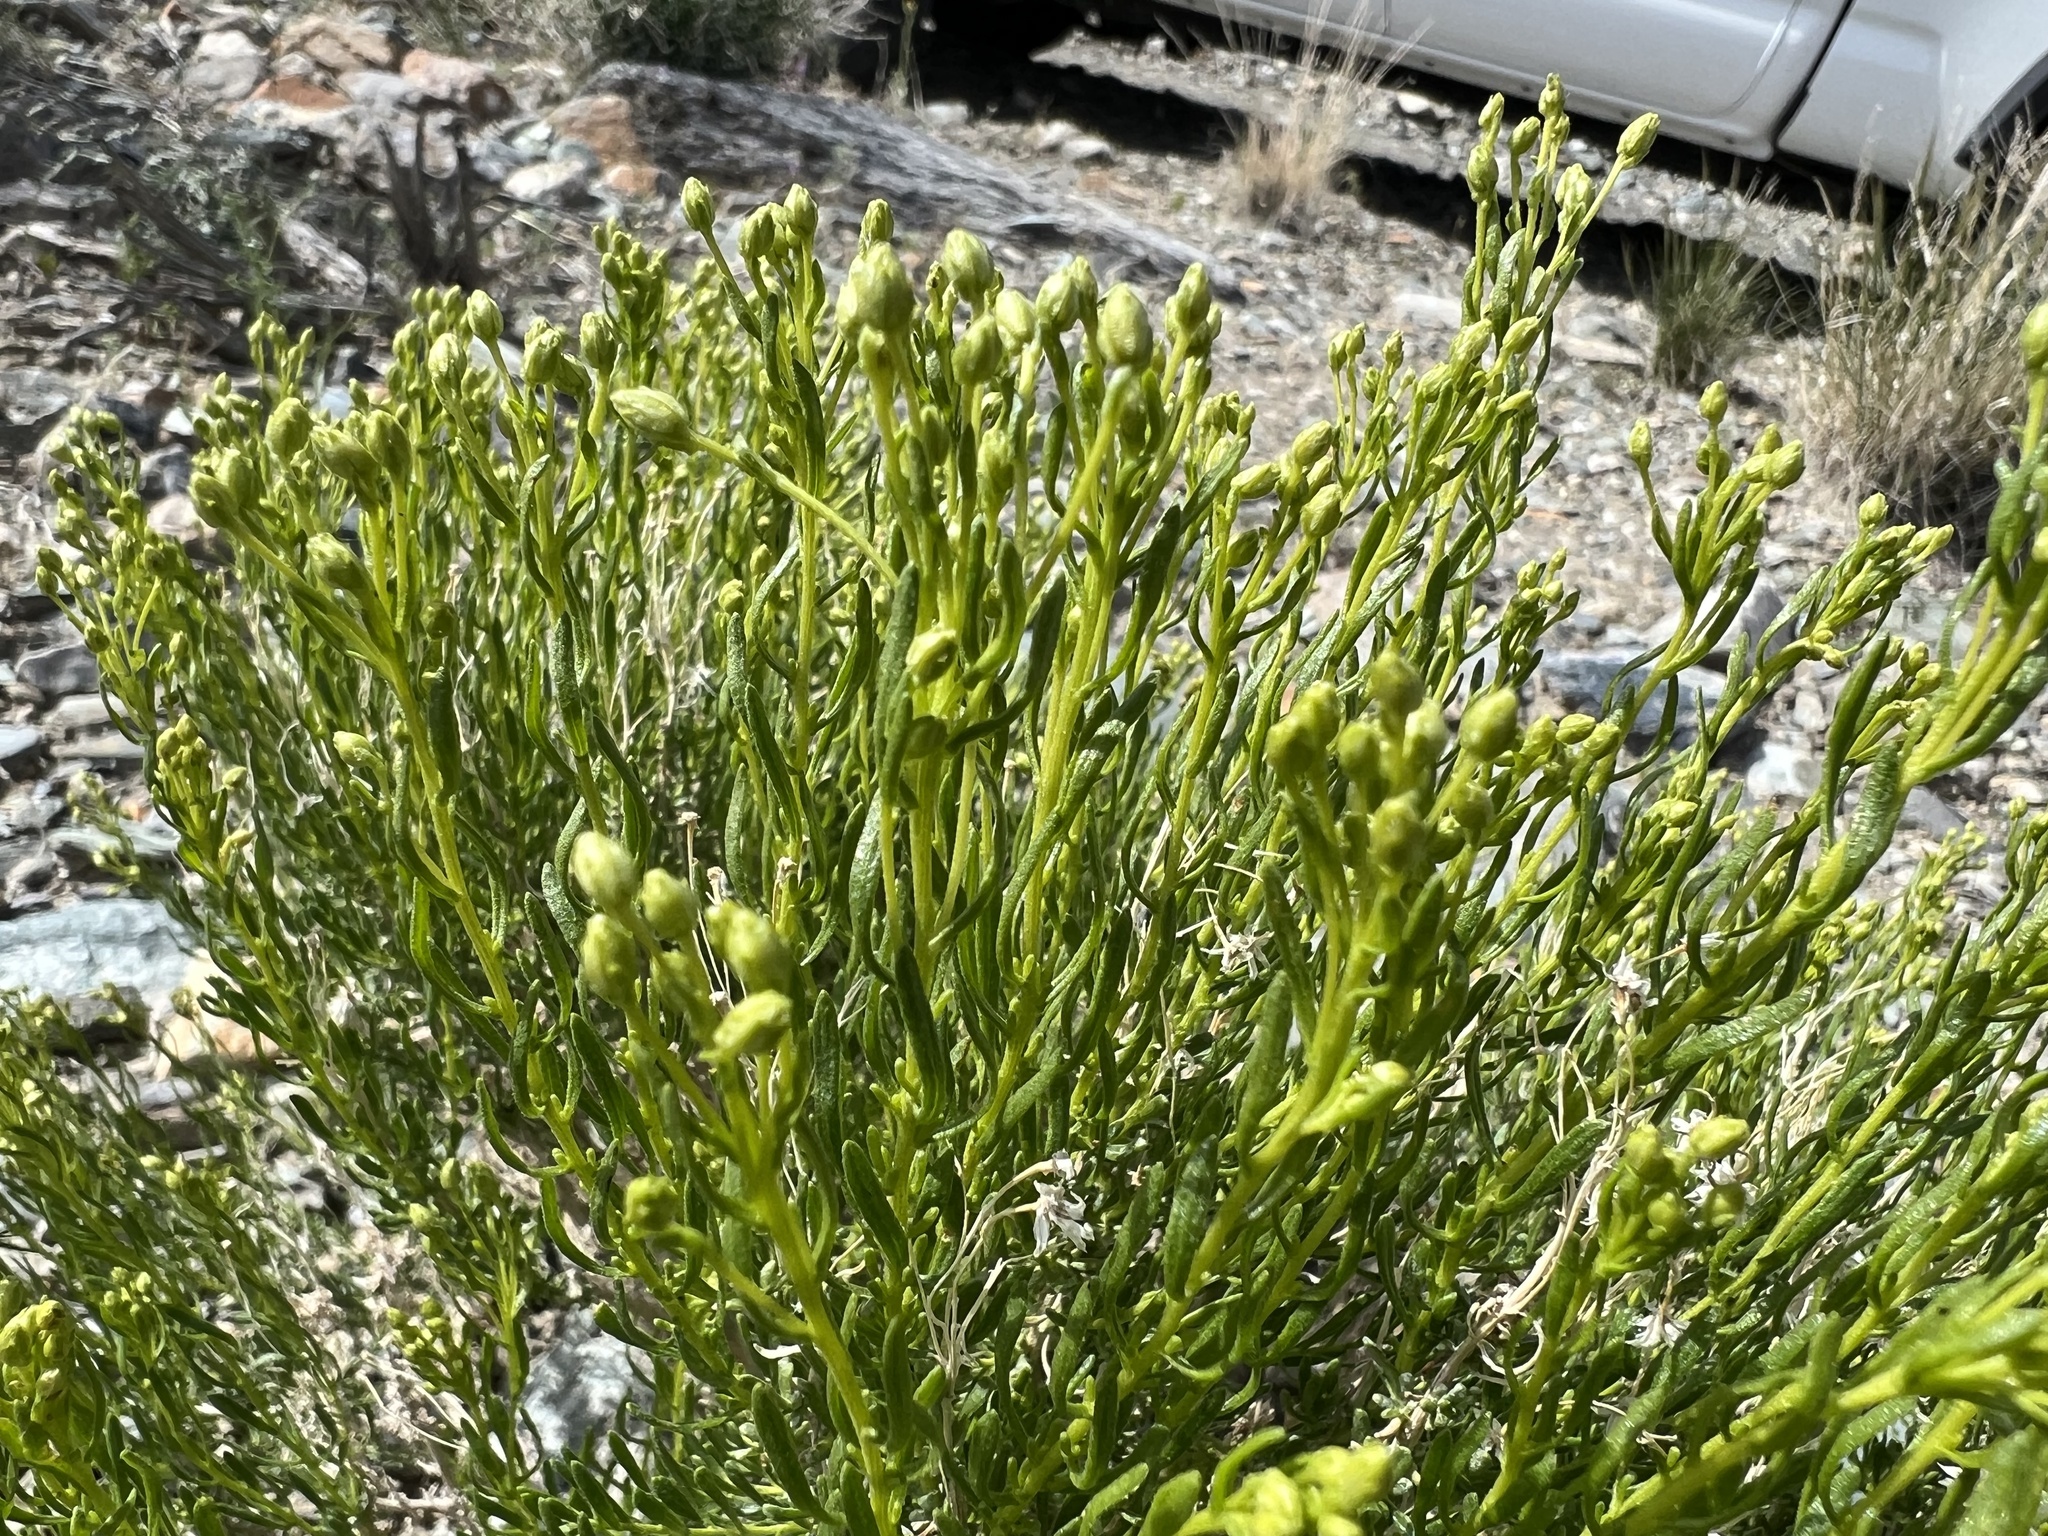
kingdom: Plantae
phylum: Tracheophyta
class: Magnoliopsida
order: Asterales
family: Asteraceae
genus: Ericameria
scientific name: Ericameria cooperi
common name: Cooper's goldenbush
